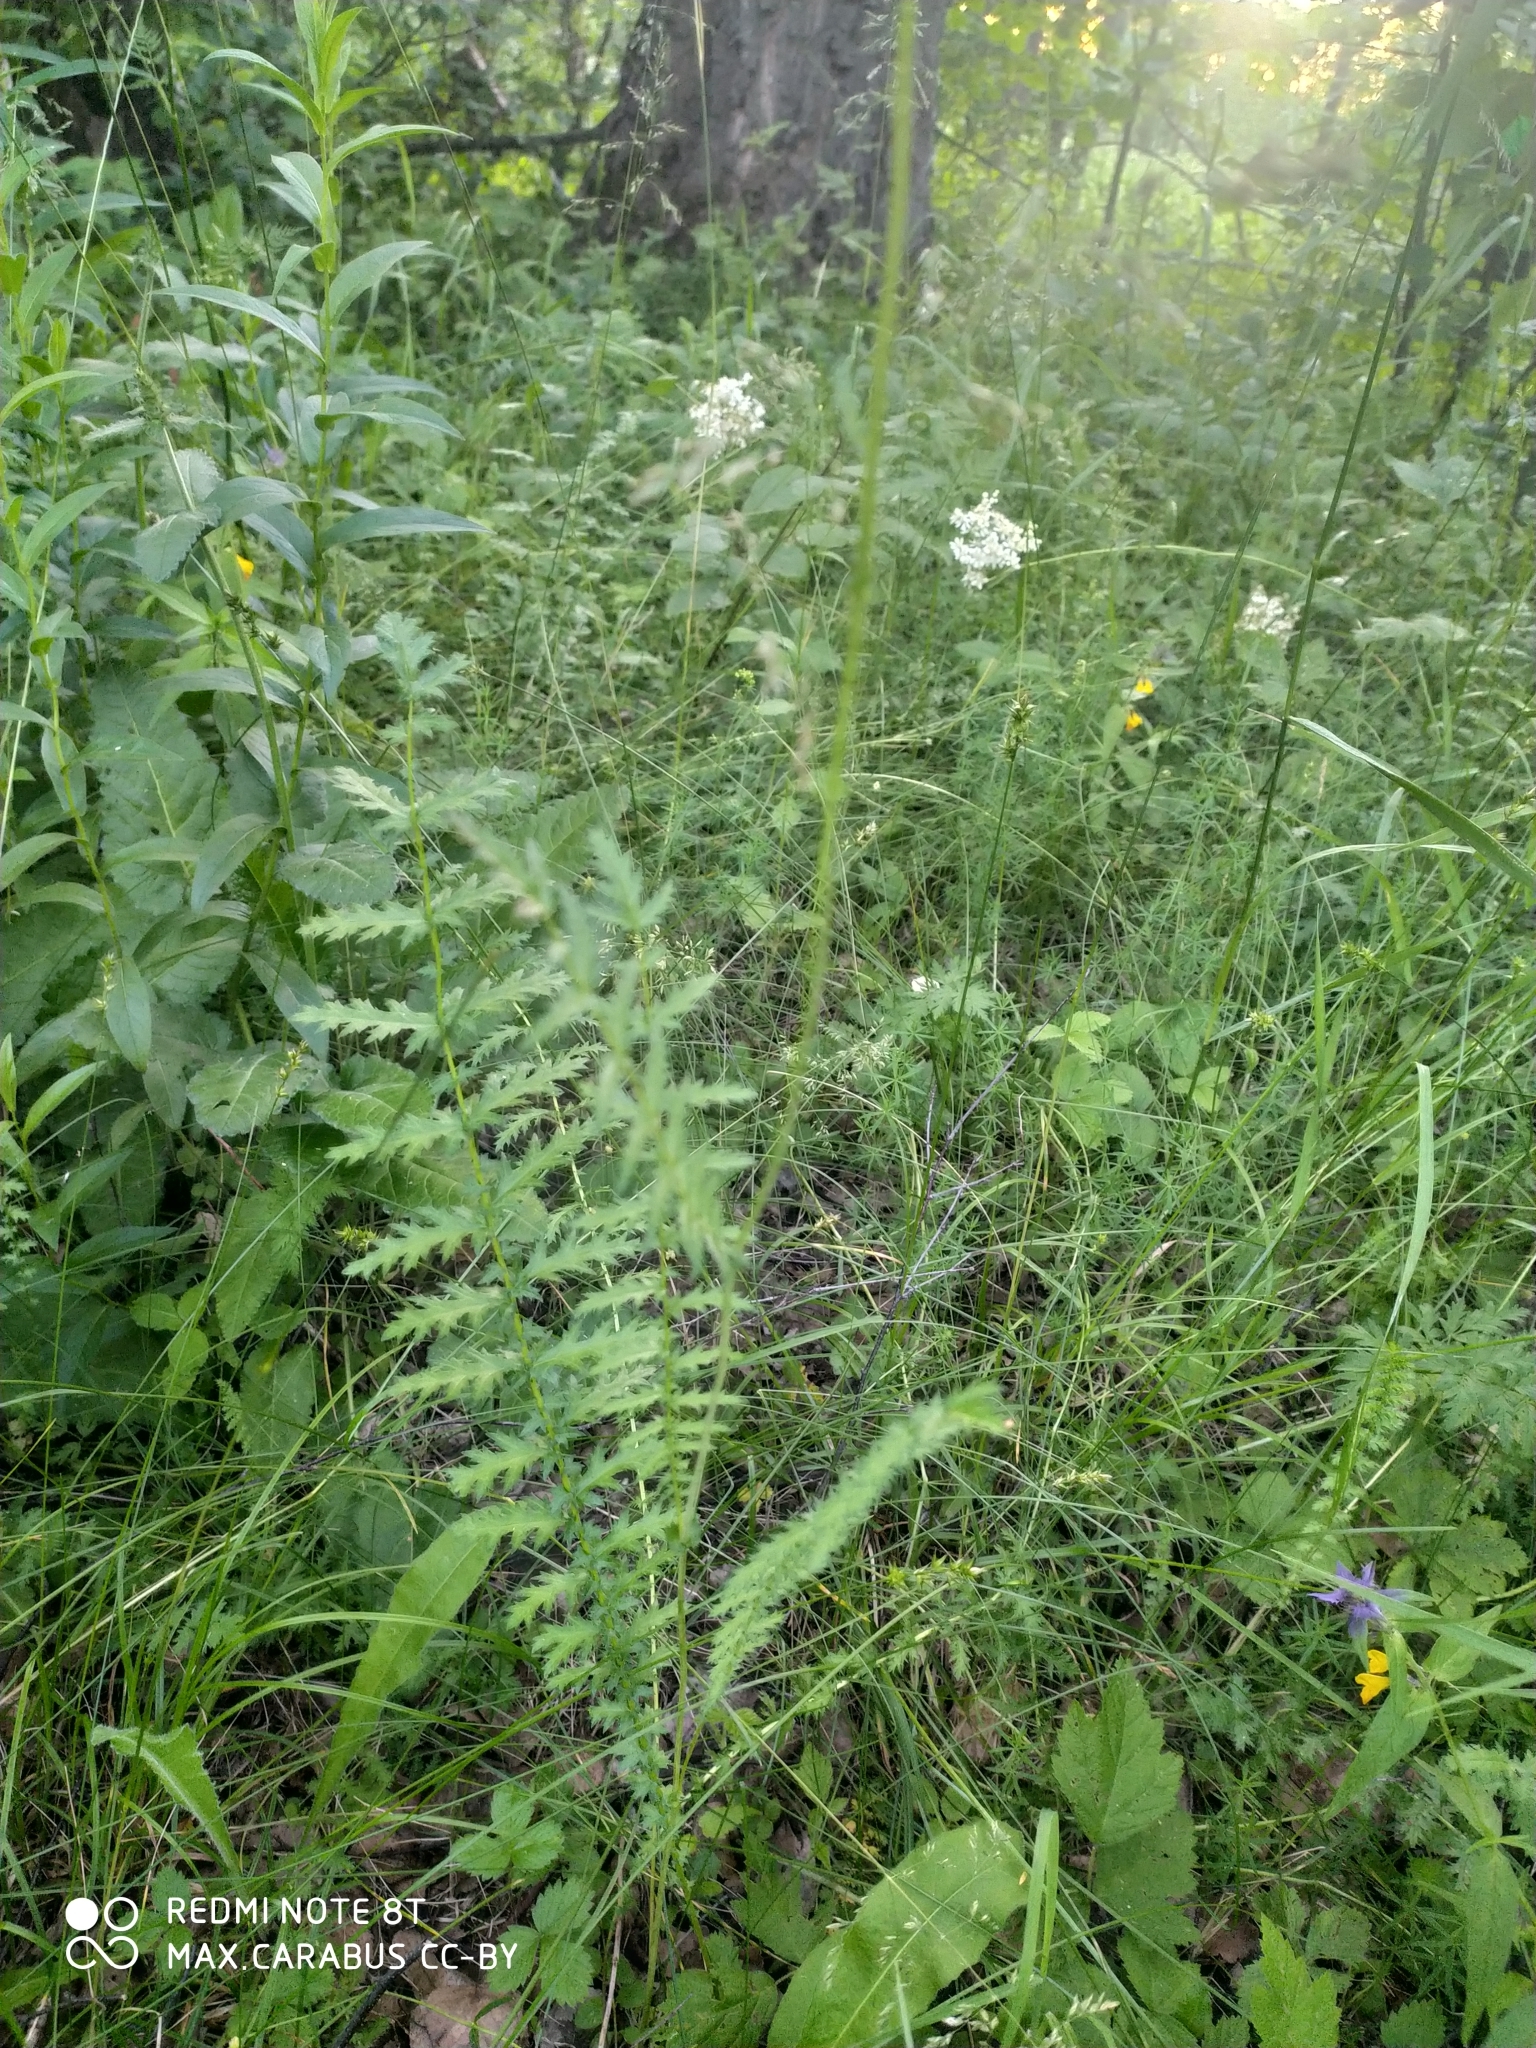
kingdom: Plantae
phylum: Tracheophyta
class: Magnoliopsida
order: Rosales
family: Rosaceae
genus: Filipendula
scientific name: Filipendula vulgaris
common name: Dropwort
